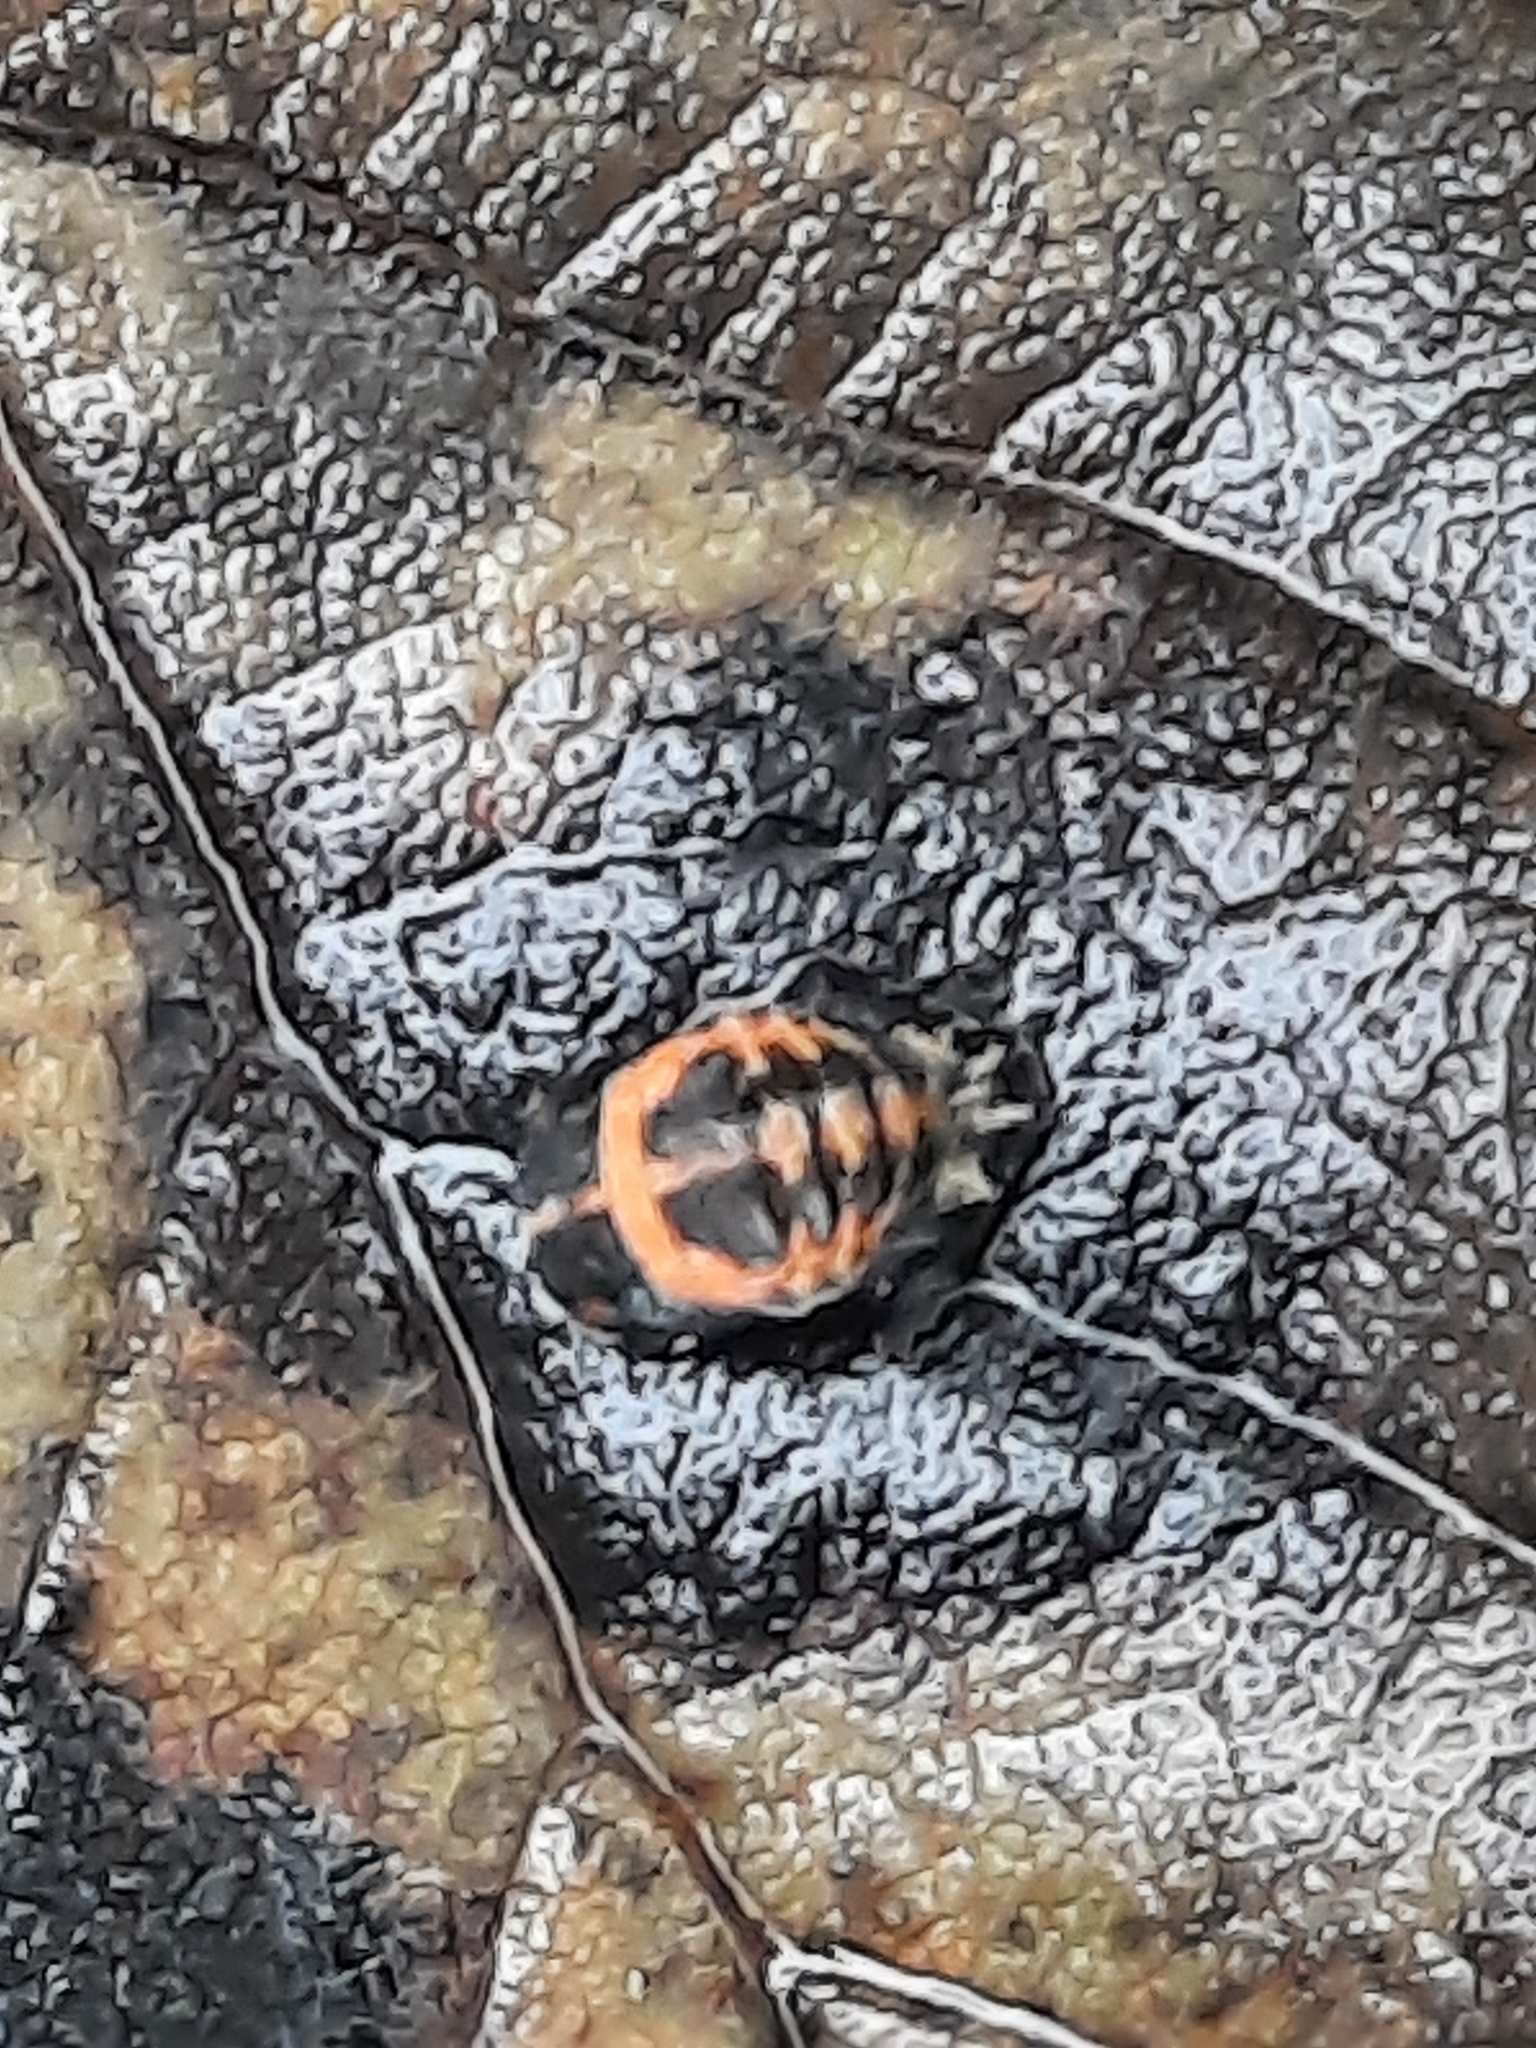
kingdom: Animalia
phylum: Arthropoda
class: Insecta
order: Coleoptera
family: Coccinellidae
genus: Harmonia
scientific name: Harmonia axyridis
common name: Harlequin ladybird
